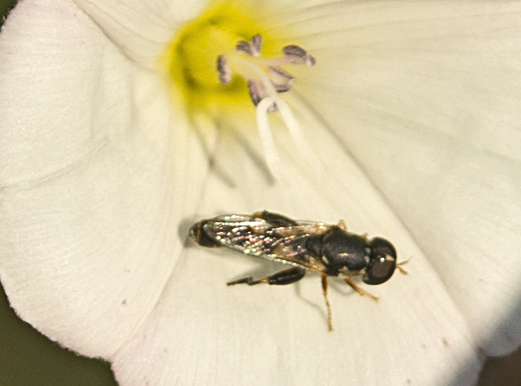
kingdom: Animalia
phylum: Arthropoda
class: Insecta
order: Diptera
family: Syrphidae
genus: Syritta
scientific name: Syritta pipiens
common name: Hover fly
